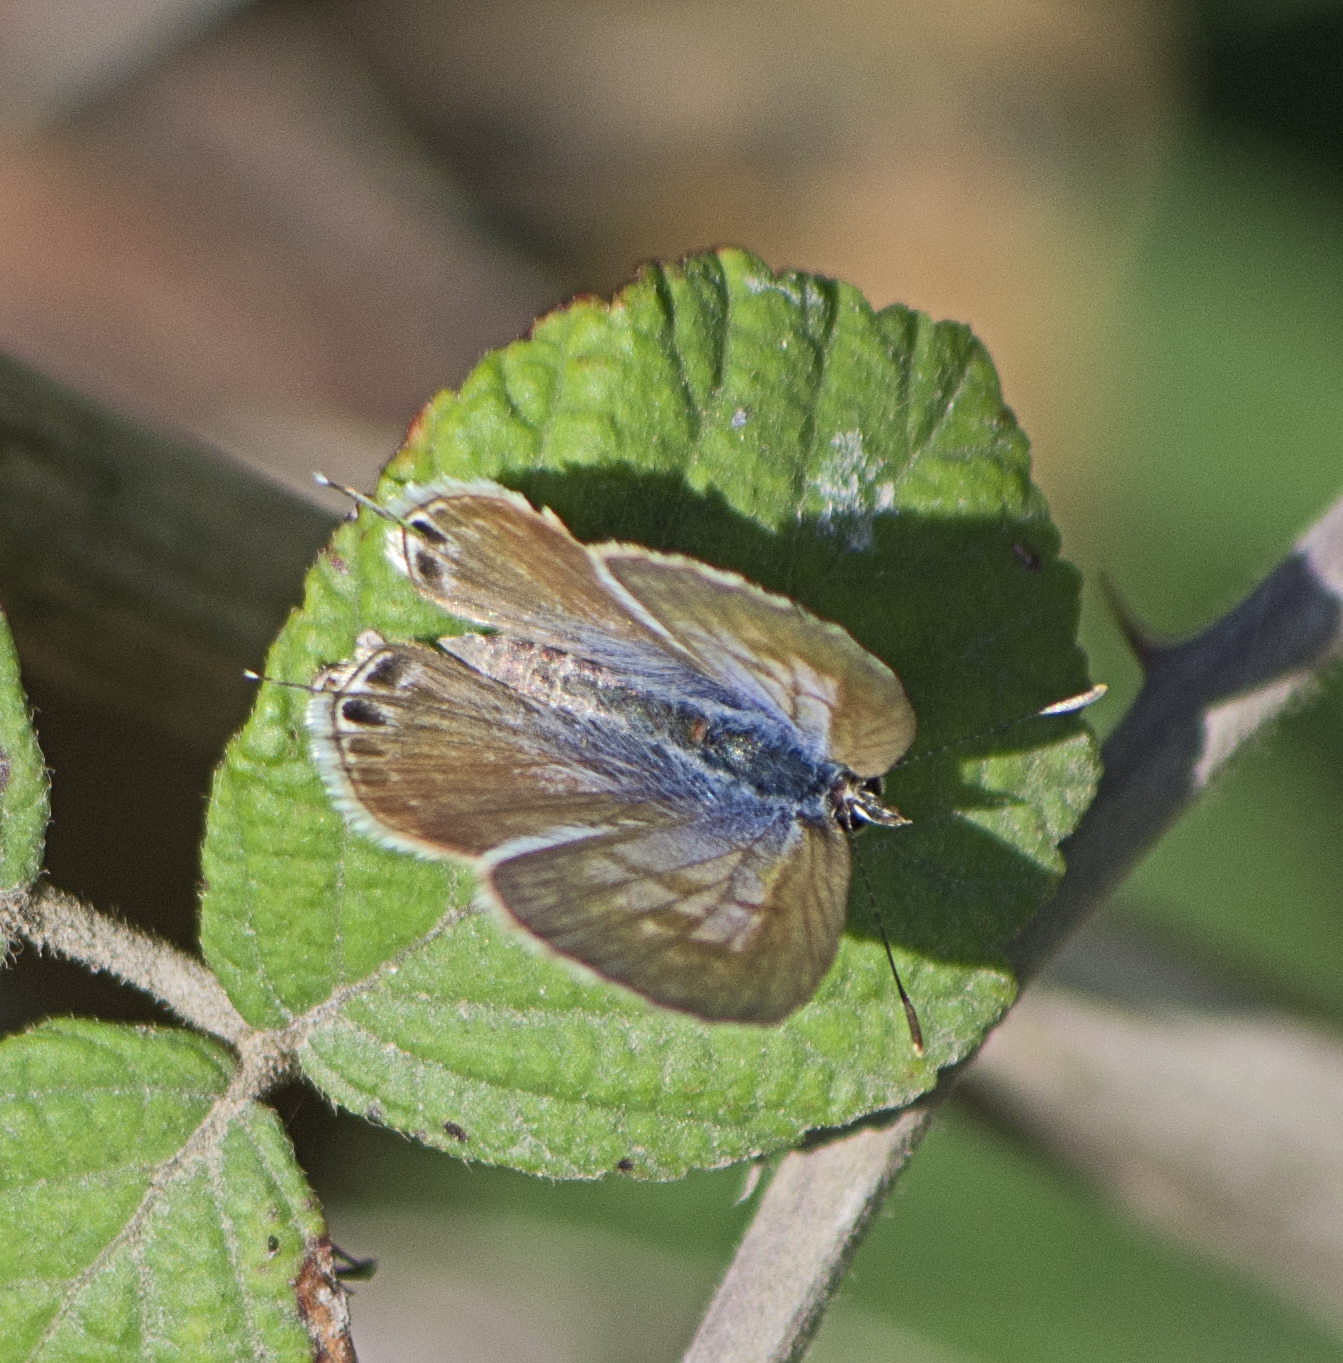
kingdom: Animalia
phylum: Arthropoda
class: Insecta
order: Lepidoptera
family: Lycaenidae
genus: Leptotes
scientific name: Leptotes pirithous
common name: Lang's short-tailed blue
